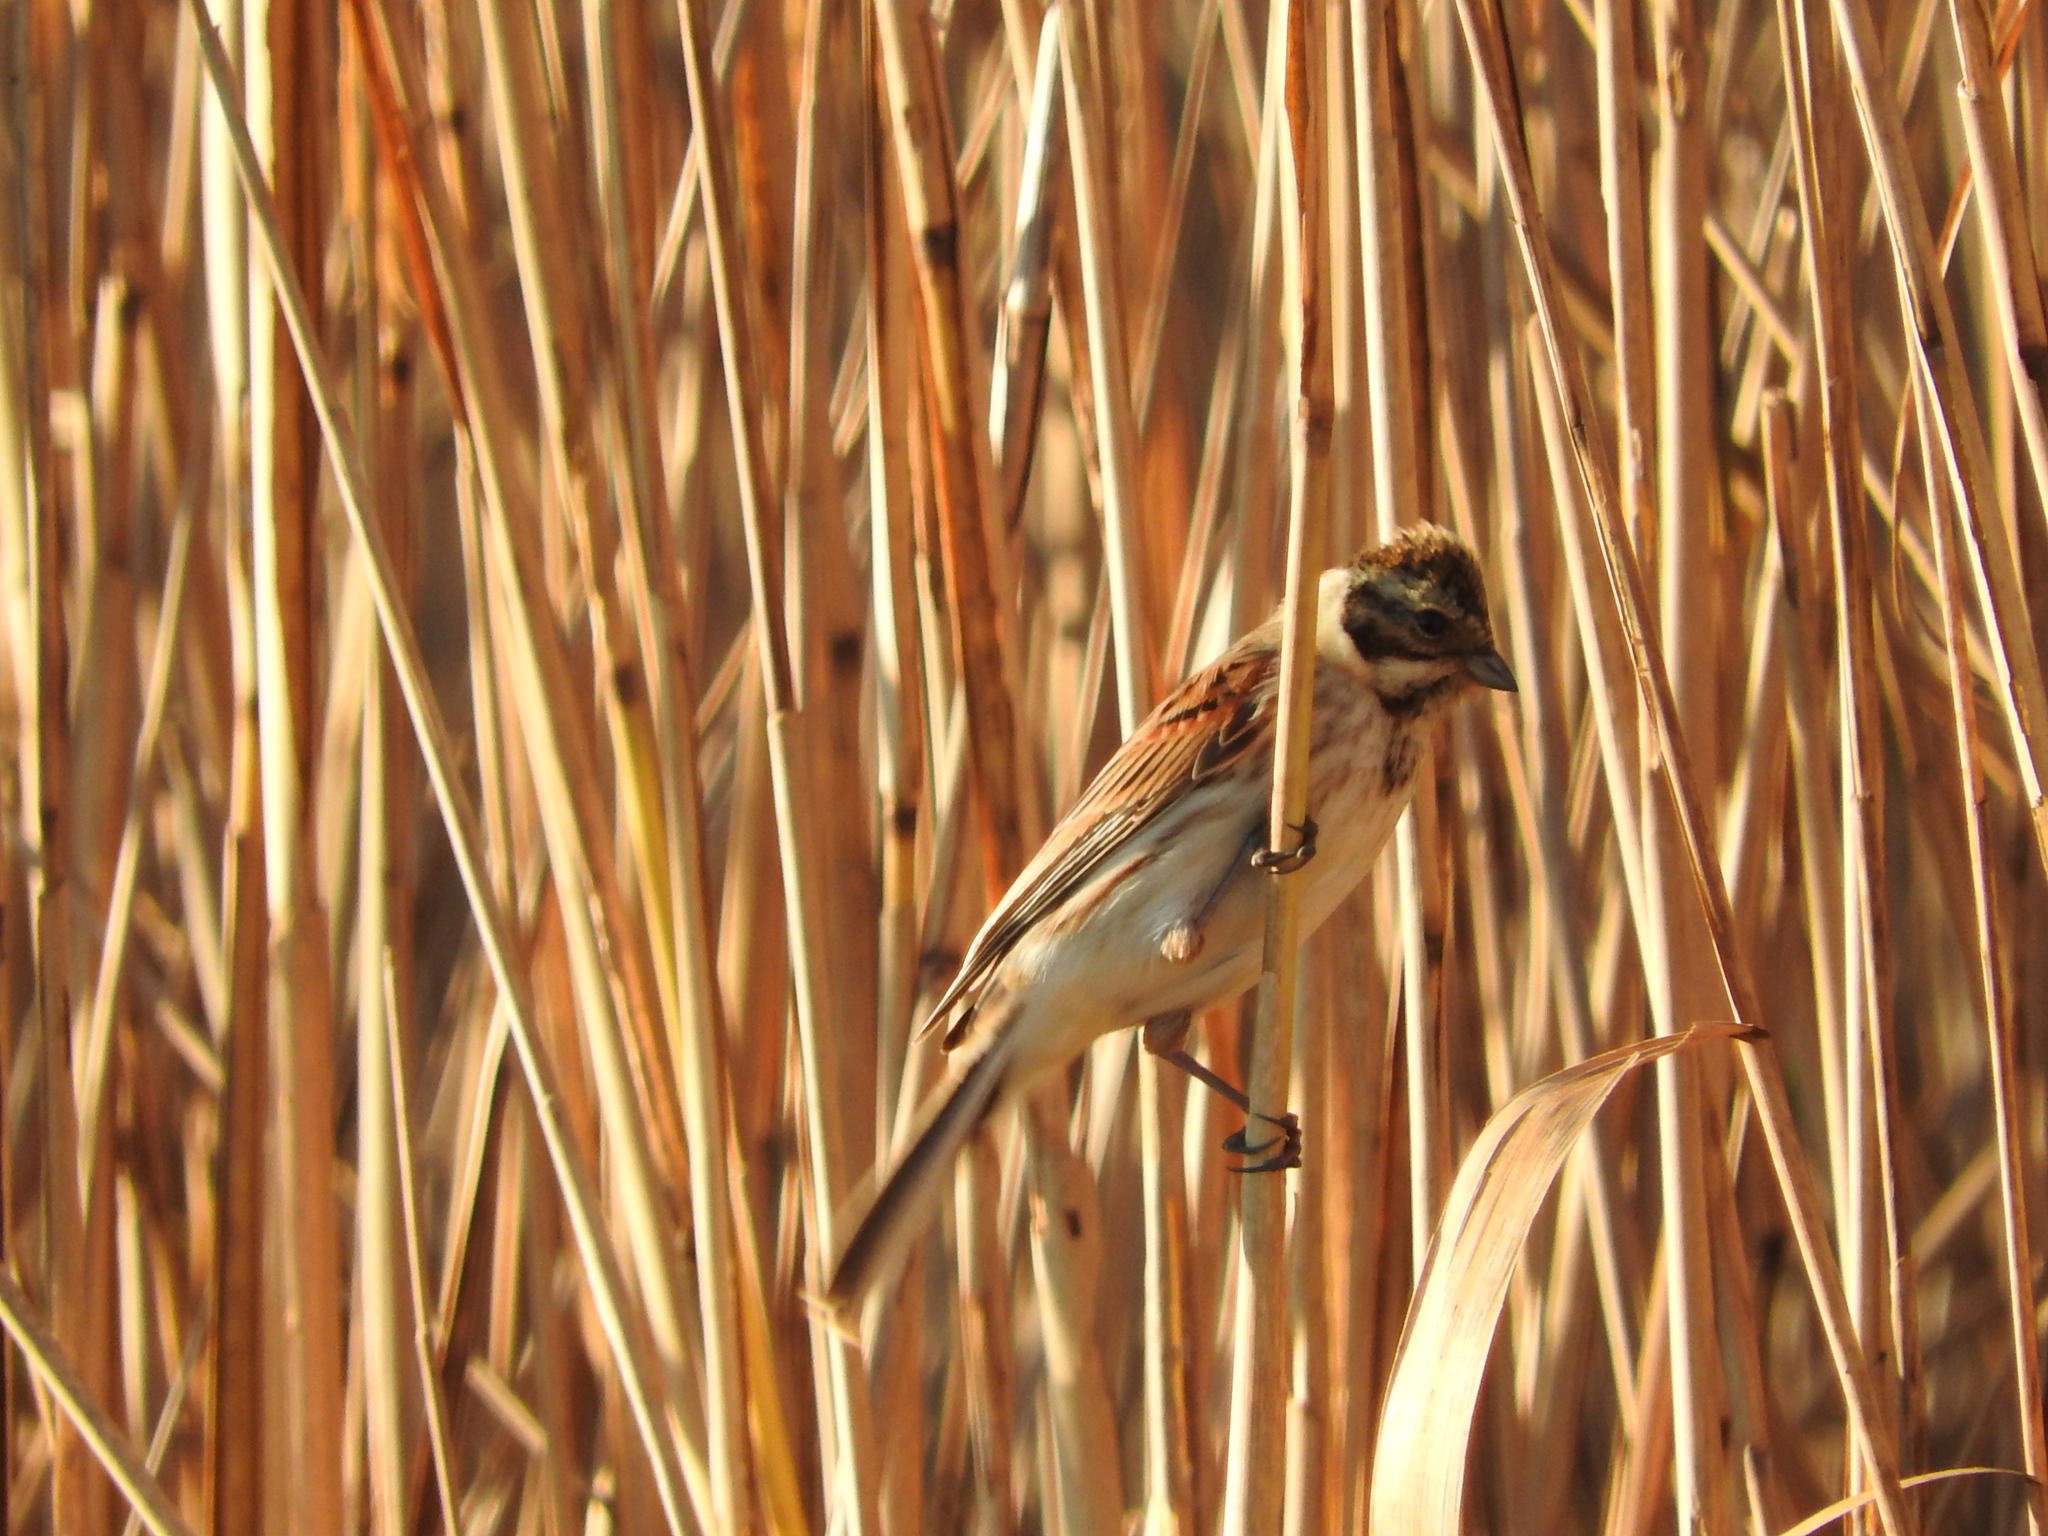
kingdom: Animalia
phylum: Chordata
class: Aves
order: Passeriformes
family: Emberizidae
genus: Emberiza
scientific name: Emberiza schoeniclus
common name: Reed bunting
